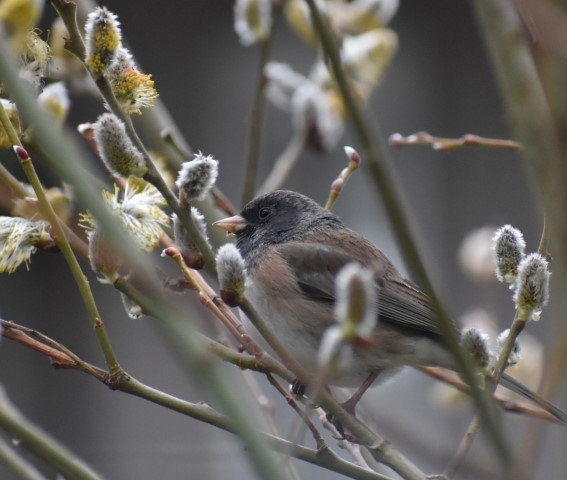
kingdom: Animalia
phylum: Chordata
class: Aves
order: Passeriformes
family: Passerellidae
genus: Junco
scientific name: Junco hyemalis
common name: Dark-eyed junco
